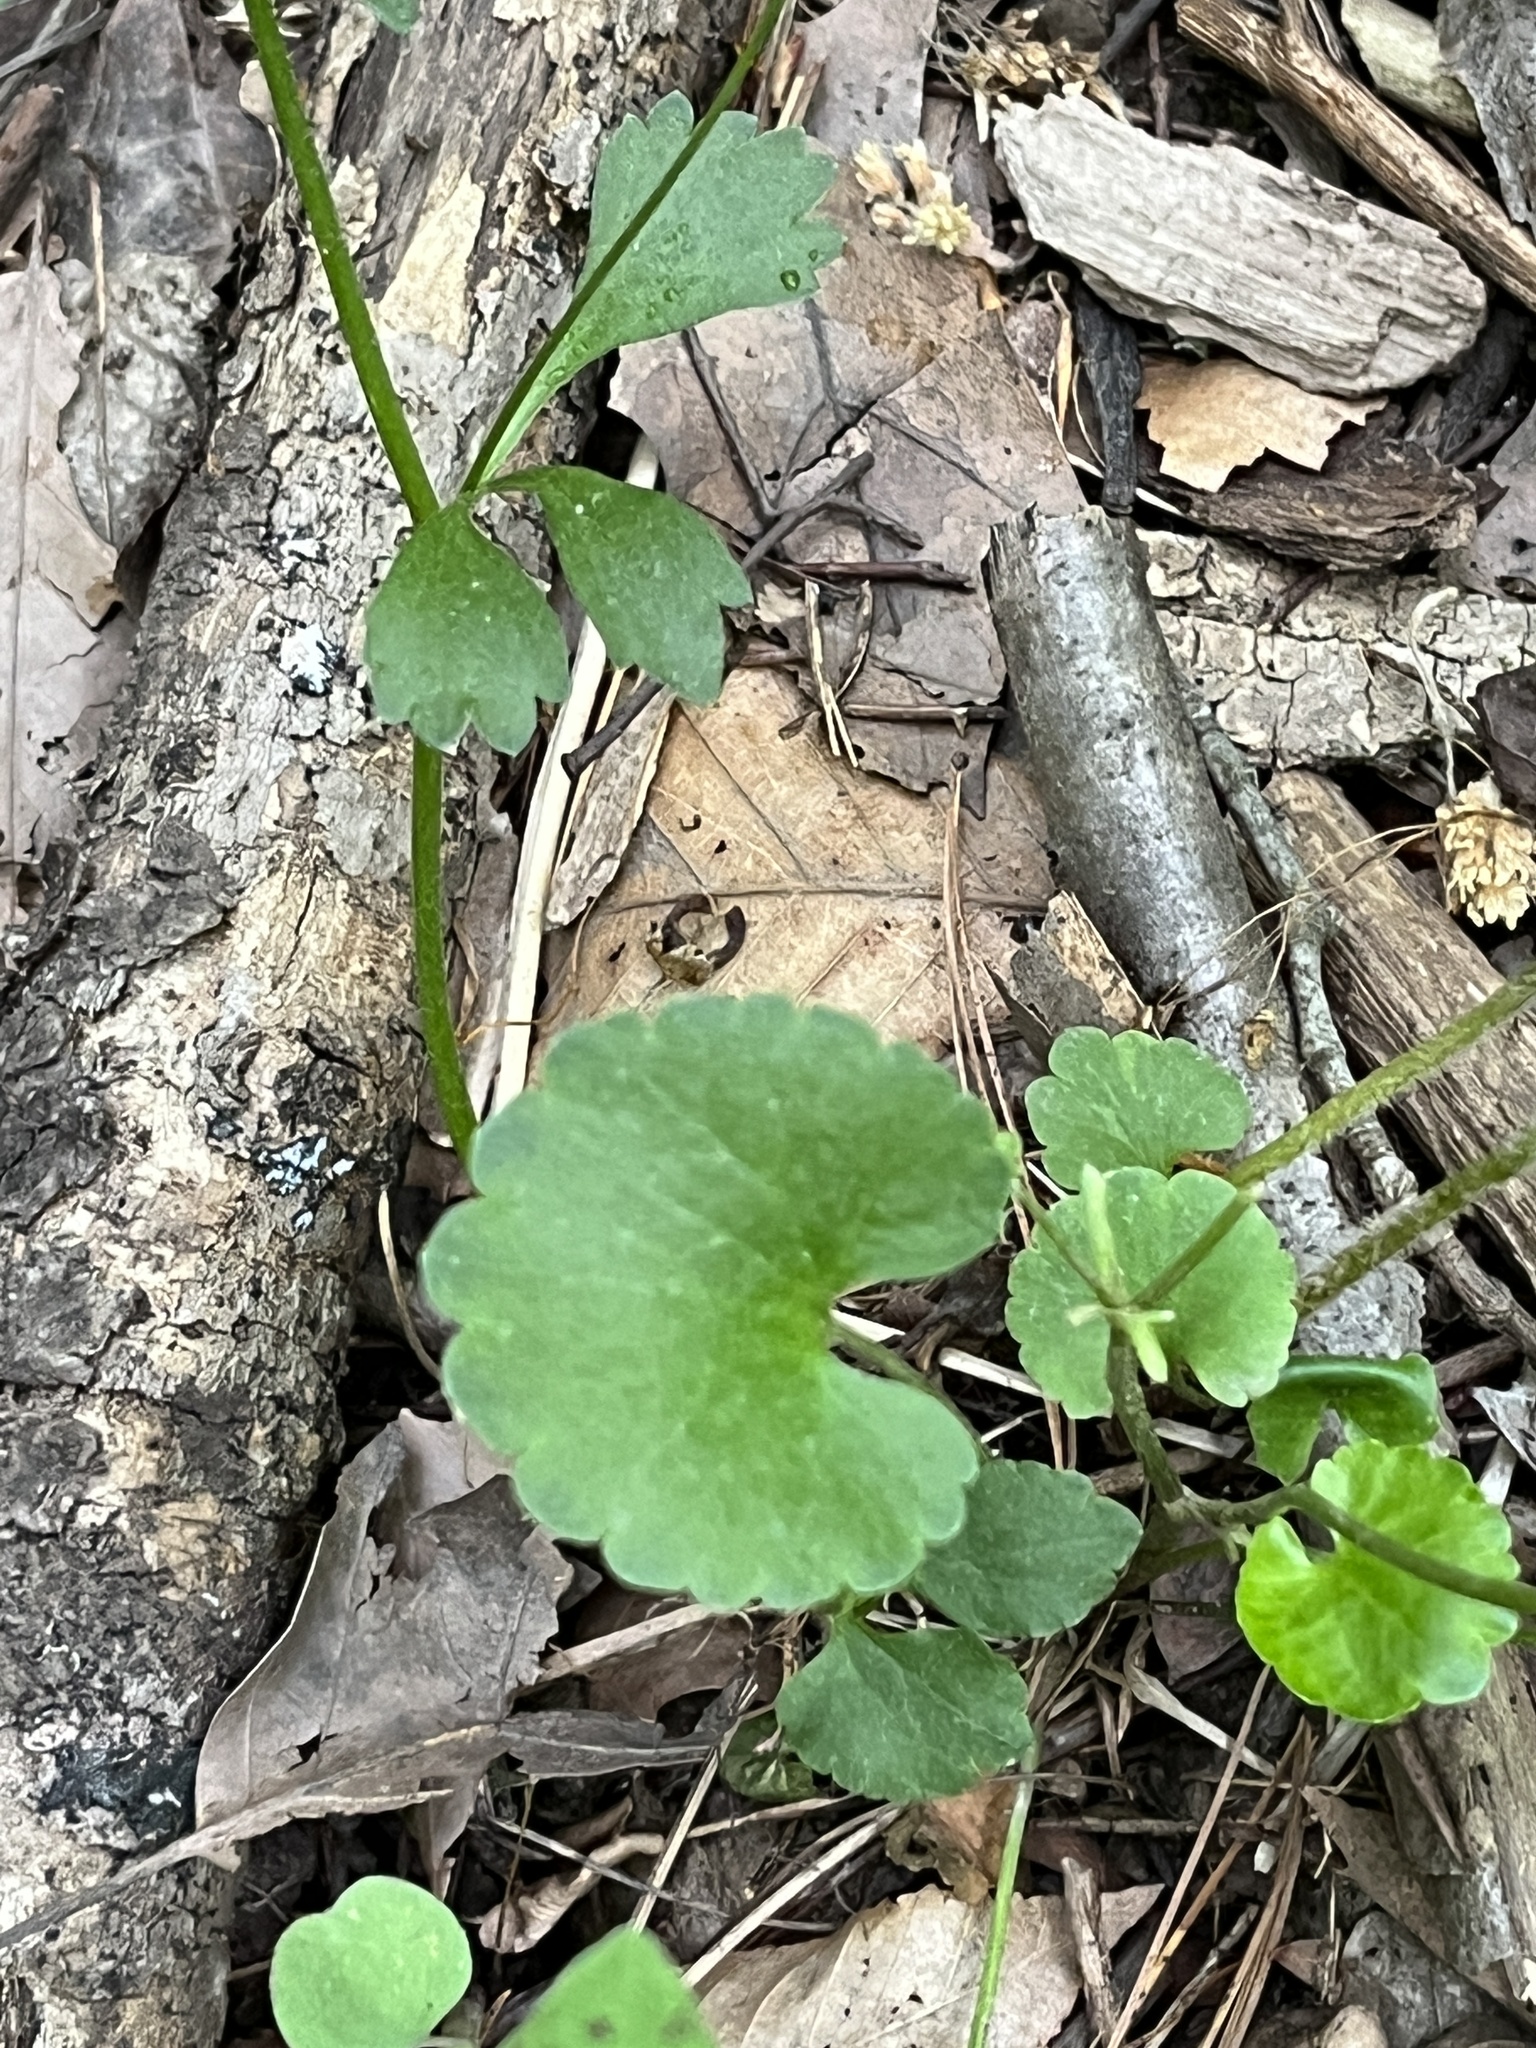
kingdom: Plantae
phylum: Tracheophyta
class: Magnoliopsida
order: Ranunculales
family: Ranunculaceae
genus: Ranunculus
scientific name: Ranunculus abortivus
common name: Early wood buttercup
